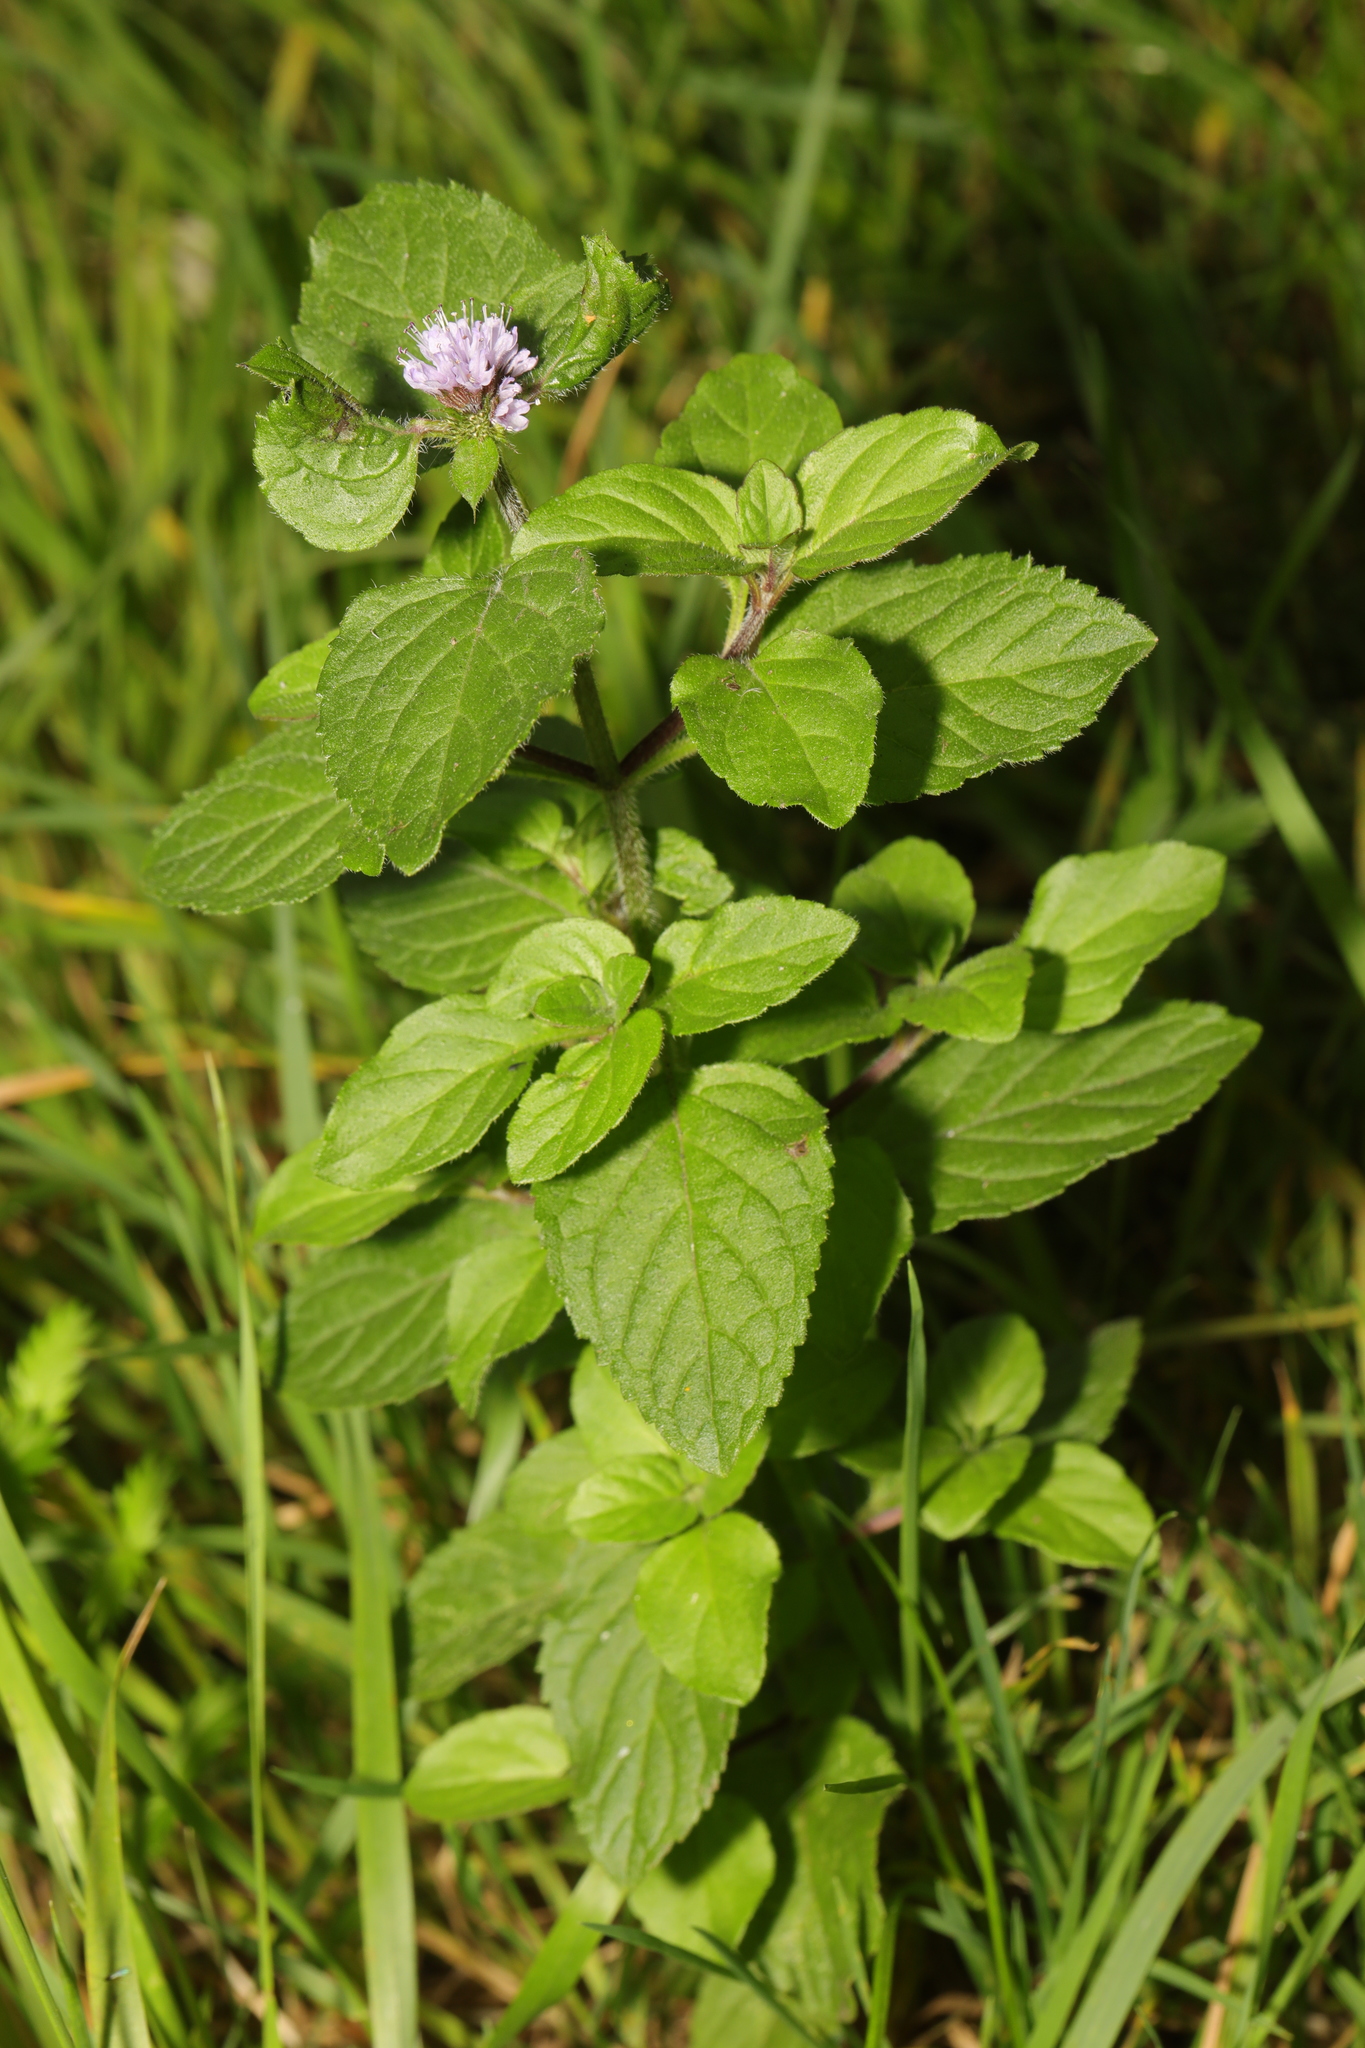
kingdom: Plantae
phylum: Tracheophyta
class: Magnoliopsida
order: Lamiales
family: Lamiaceae
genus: Mentha
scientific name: Mentha aquatica
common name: Water mint
